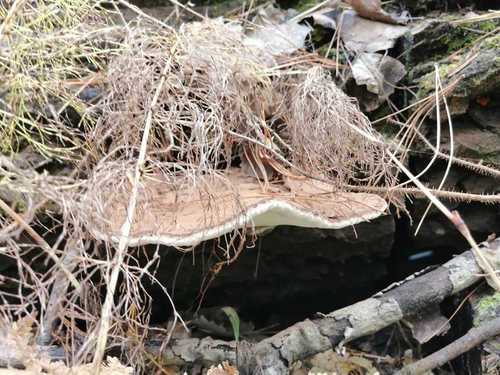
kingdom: Fungi
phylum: Basidiomycota
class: Agaricomycetes
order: Polyporales
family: Polyporaceae
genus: Ganoderma
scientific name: Ganoderma applanatum
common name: Artist's bracket
